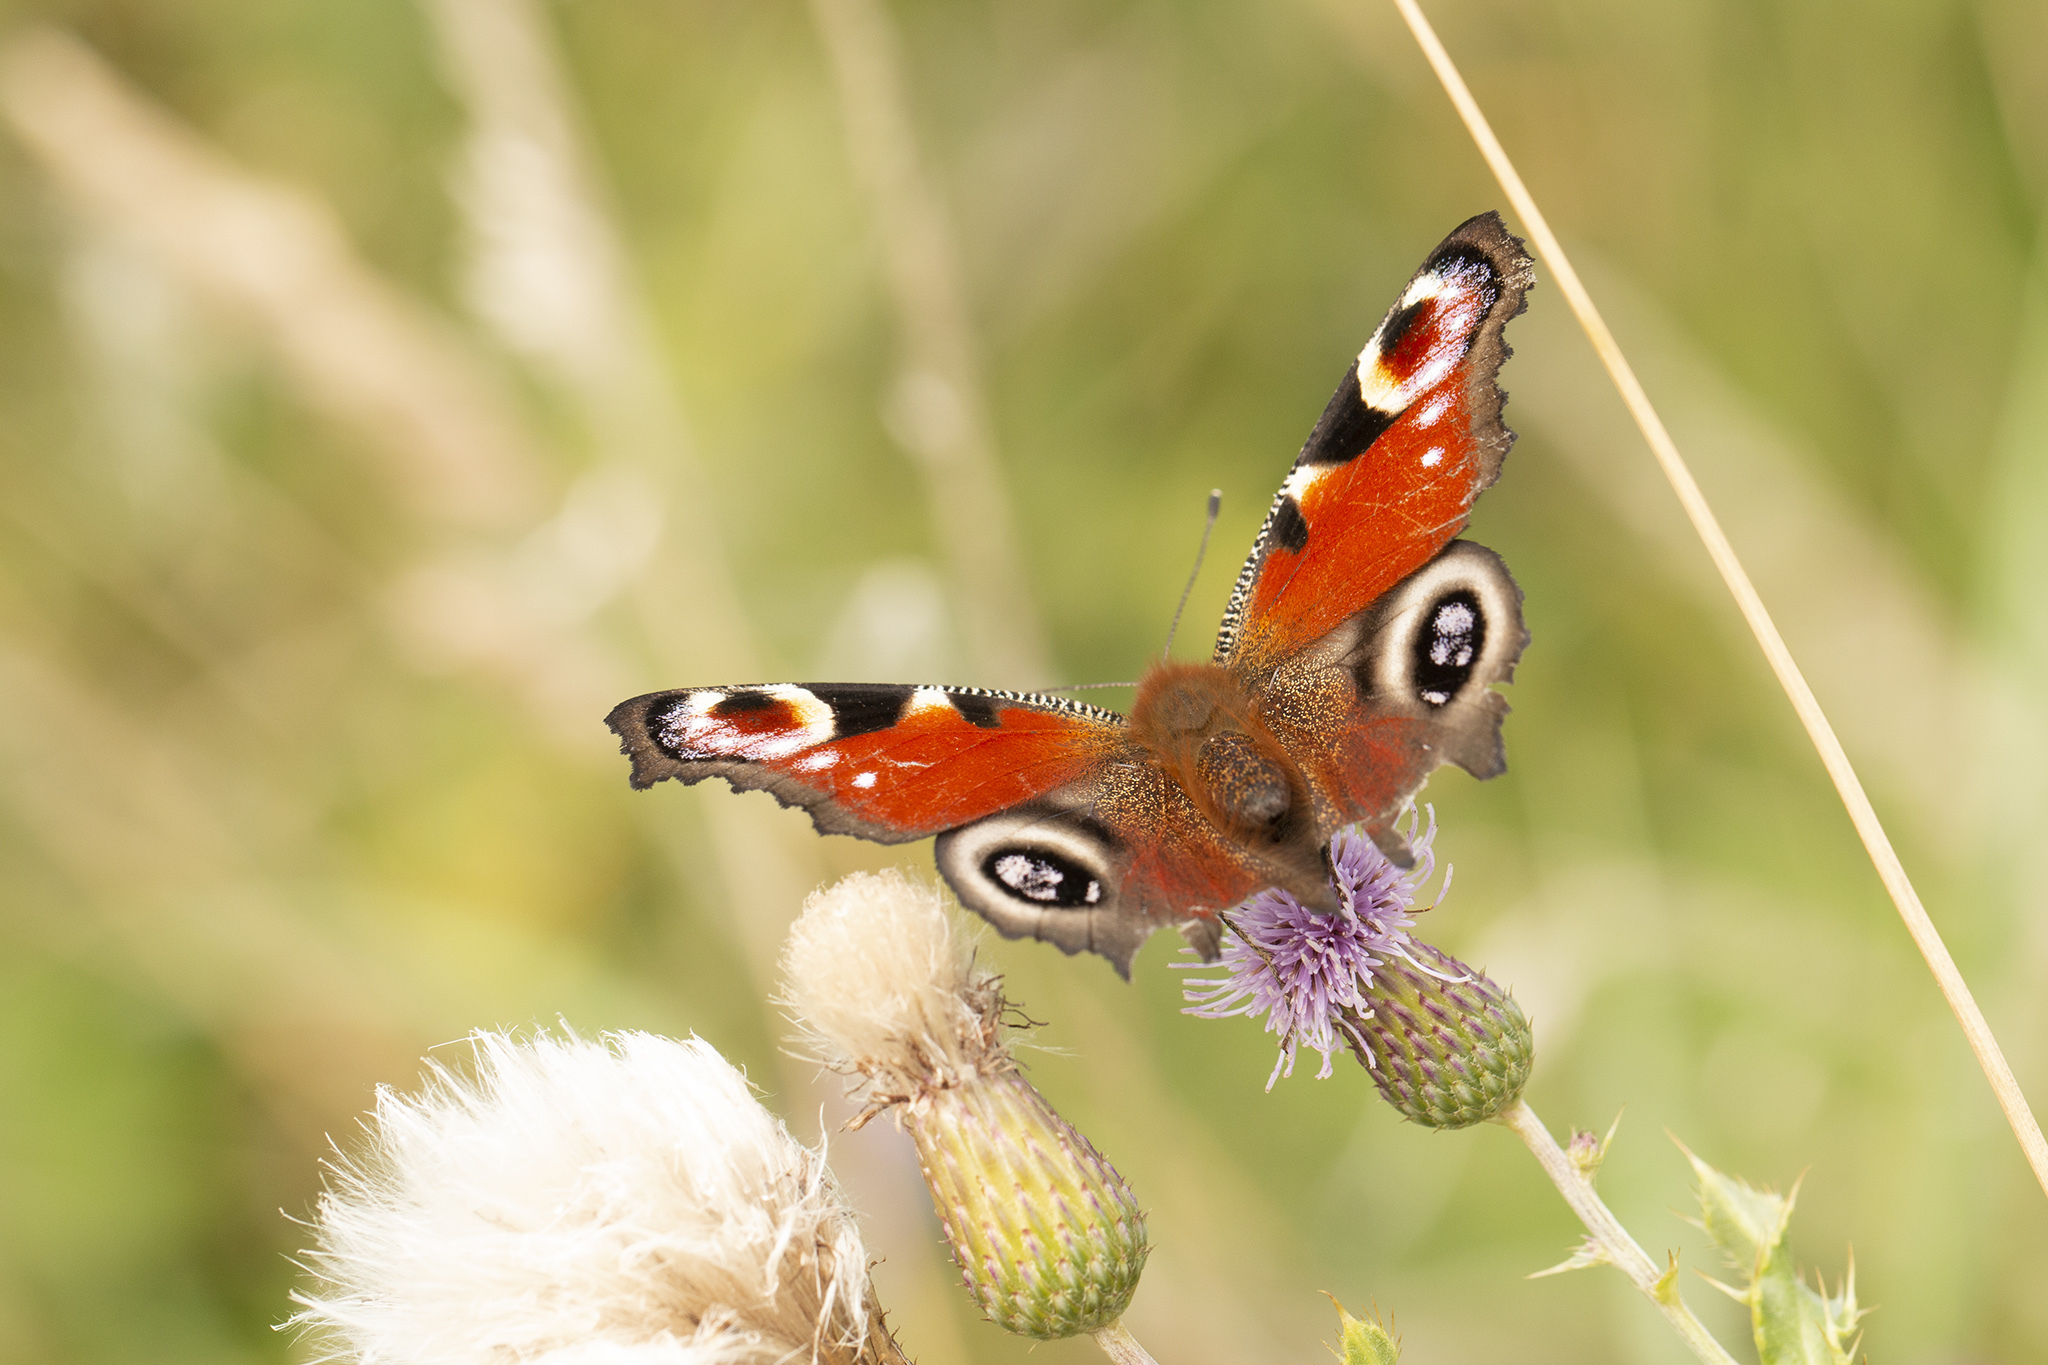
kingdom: Animalia
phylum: Arthropoda
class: Insecta
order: Lepidoptera
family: Nymphalidae
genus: Aglais
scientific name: Aglais io
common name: Peacock
